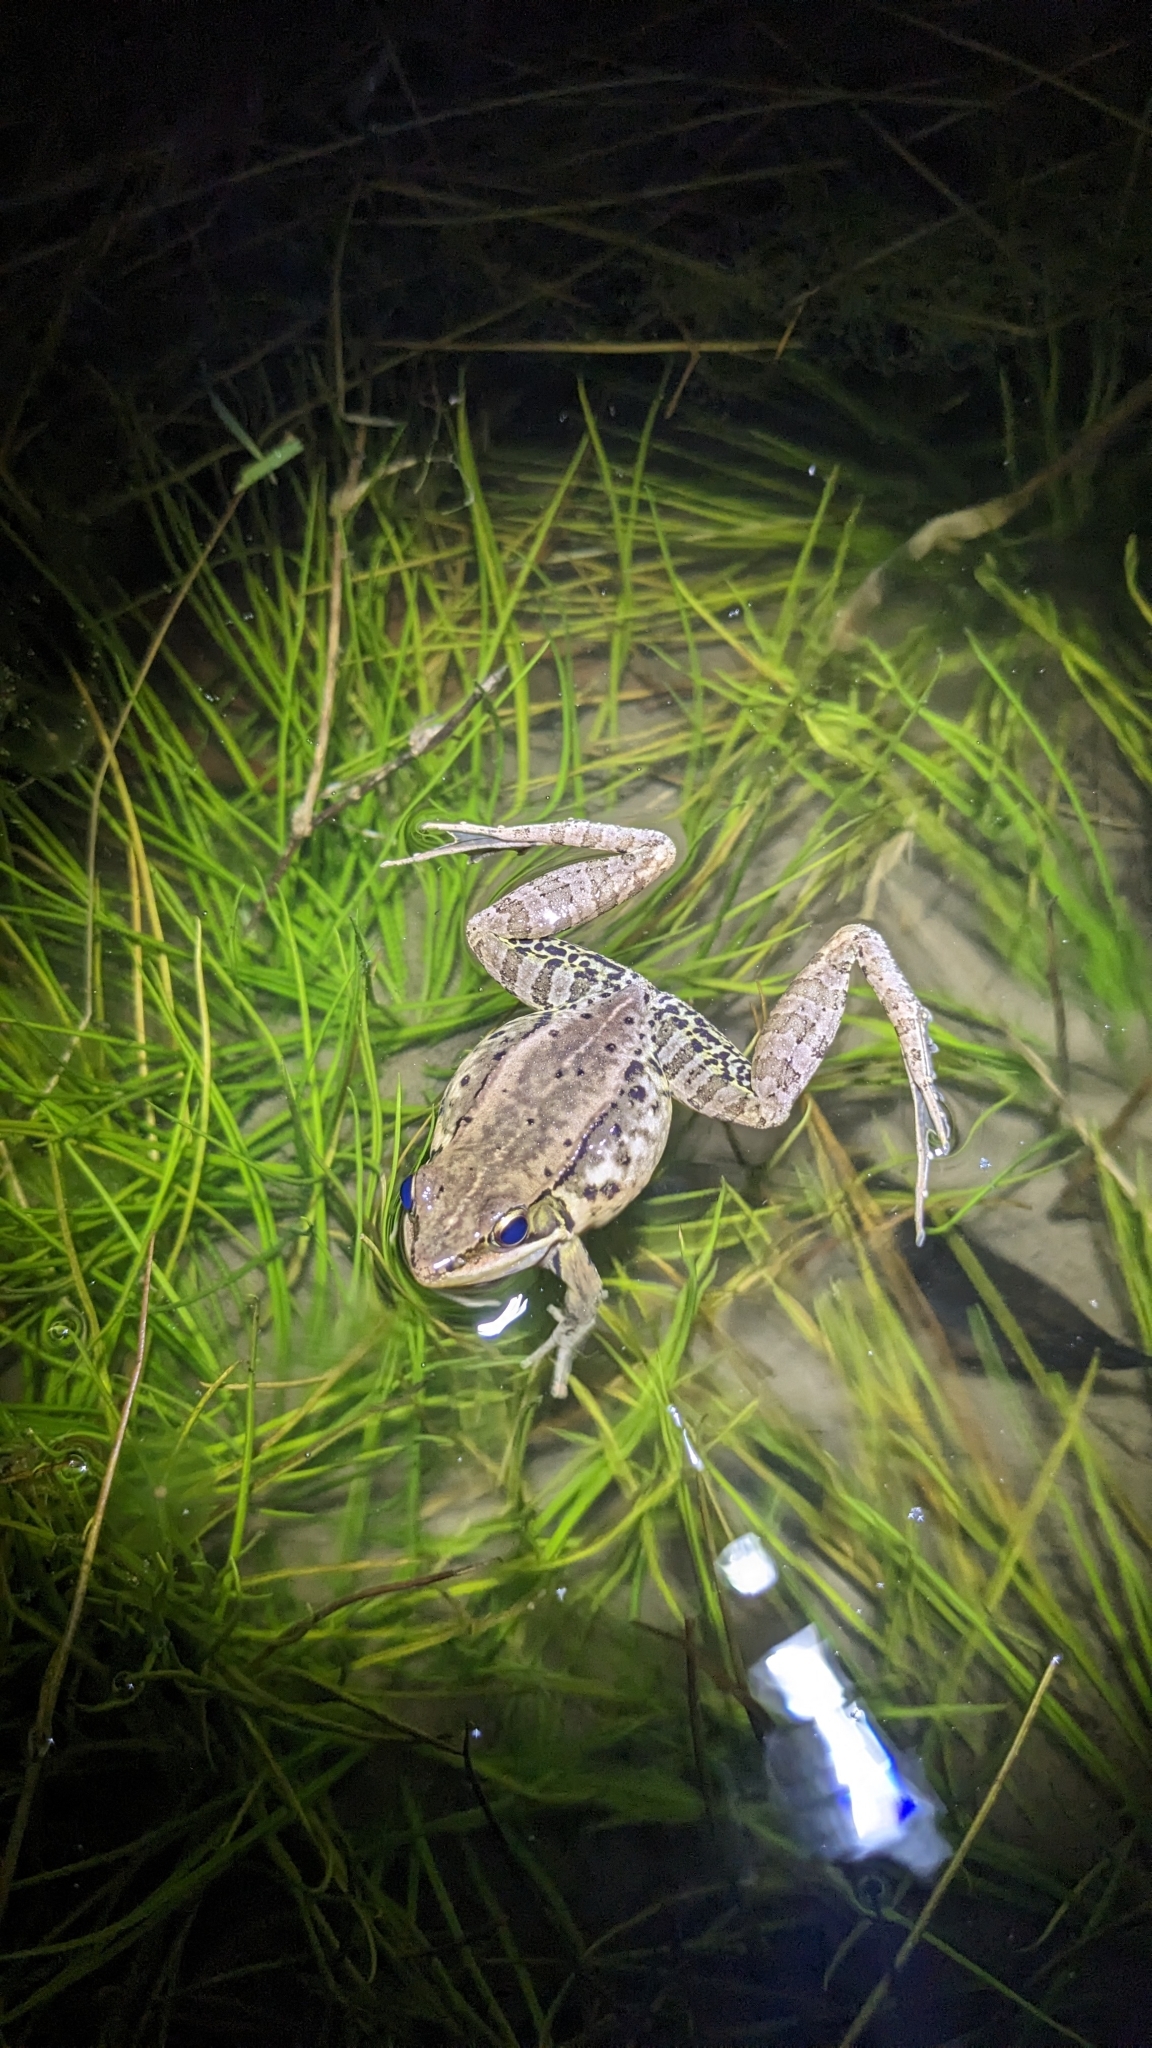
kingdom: Animalia
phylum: Chordata
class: Amphibia
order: Anura
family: Ranidae
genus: Nidirana
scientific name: Nidirana adenopleura
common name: Olive frog
